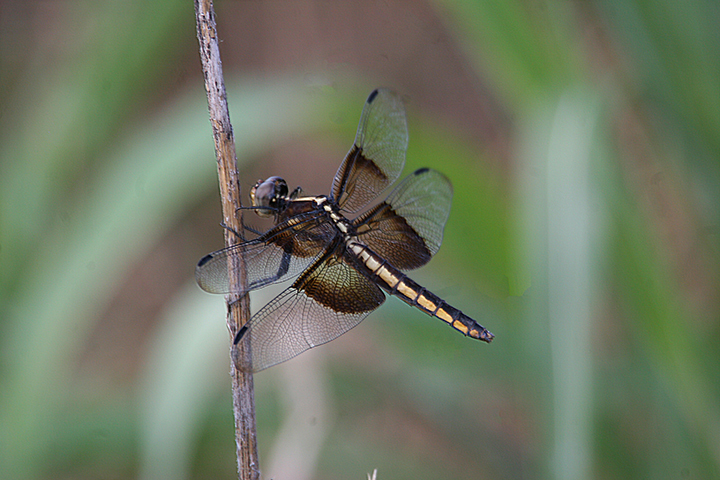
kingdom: Animalia
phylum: Arthropoda
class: Insecta
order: Odonata
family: Libellulidae
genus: Libellula
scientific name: Libellula luctuosa
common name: Widow skimmer
